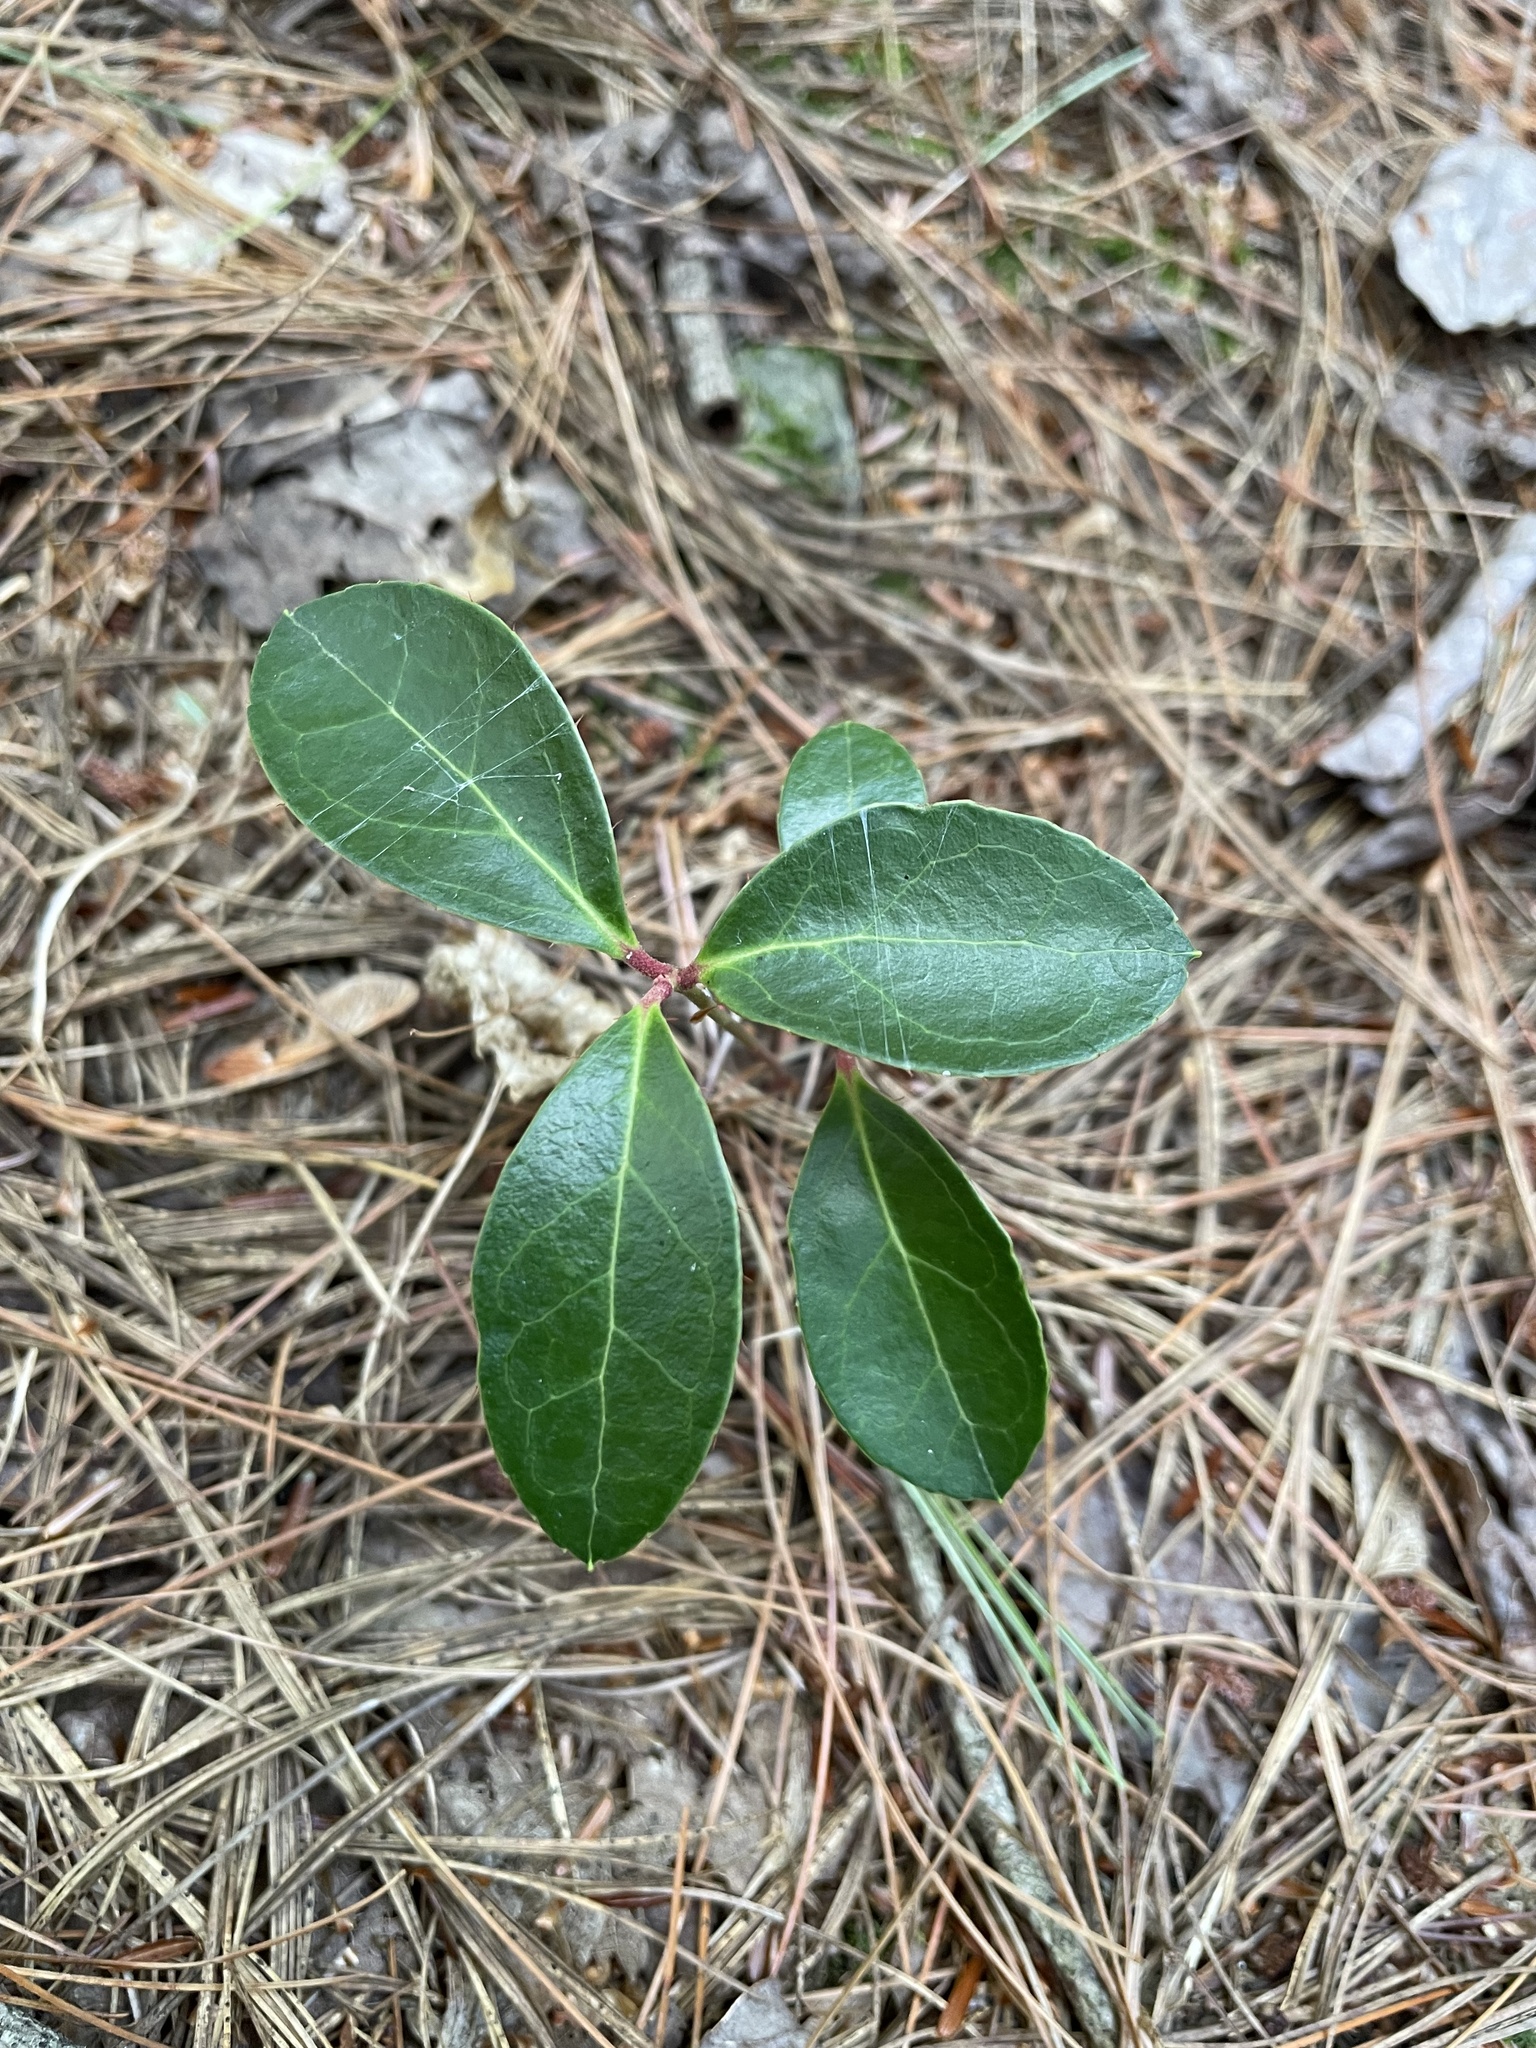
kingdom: Plantae
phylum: Tracheophyta
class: Magnoliopsida
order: Ericales
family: Ericaceae
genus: Gaultheria
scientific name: Gaultheria procumbens
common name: Checkerberry
